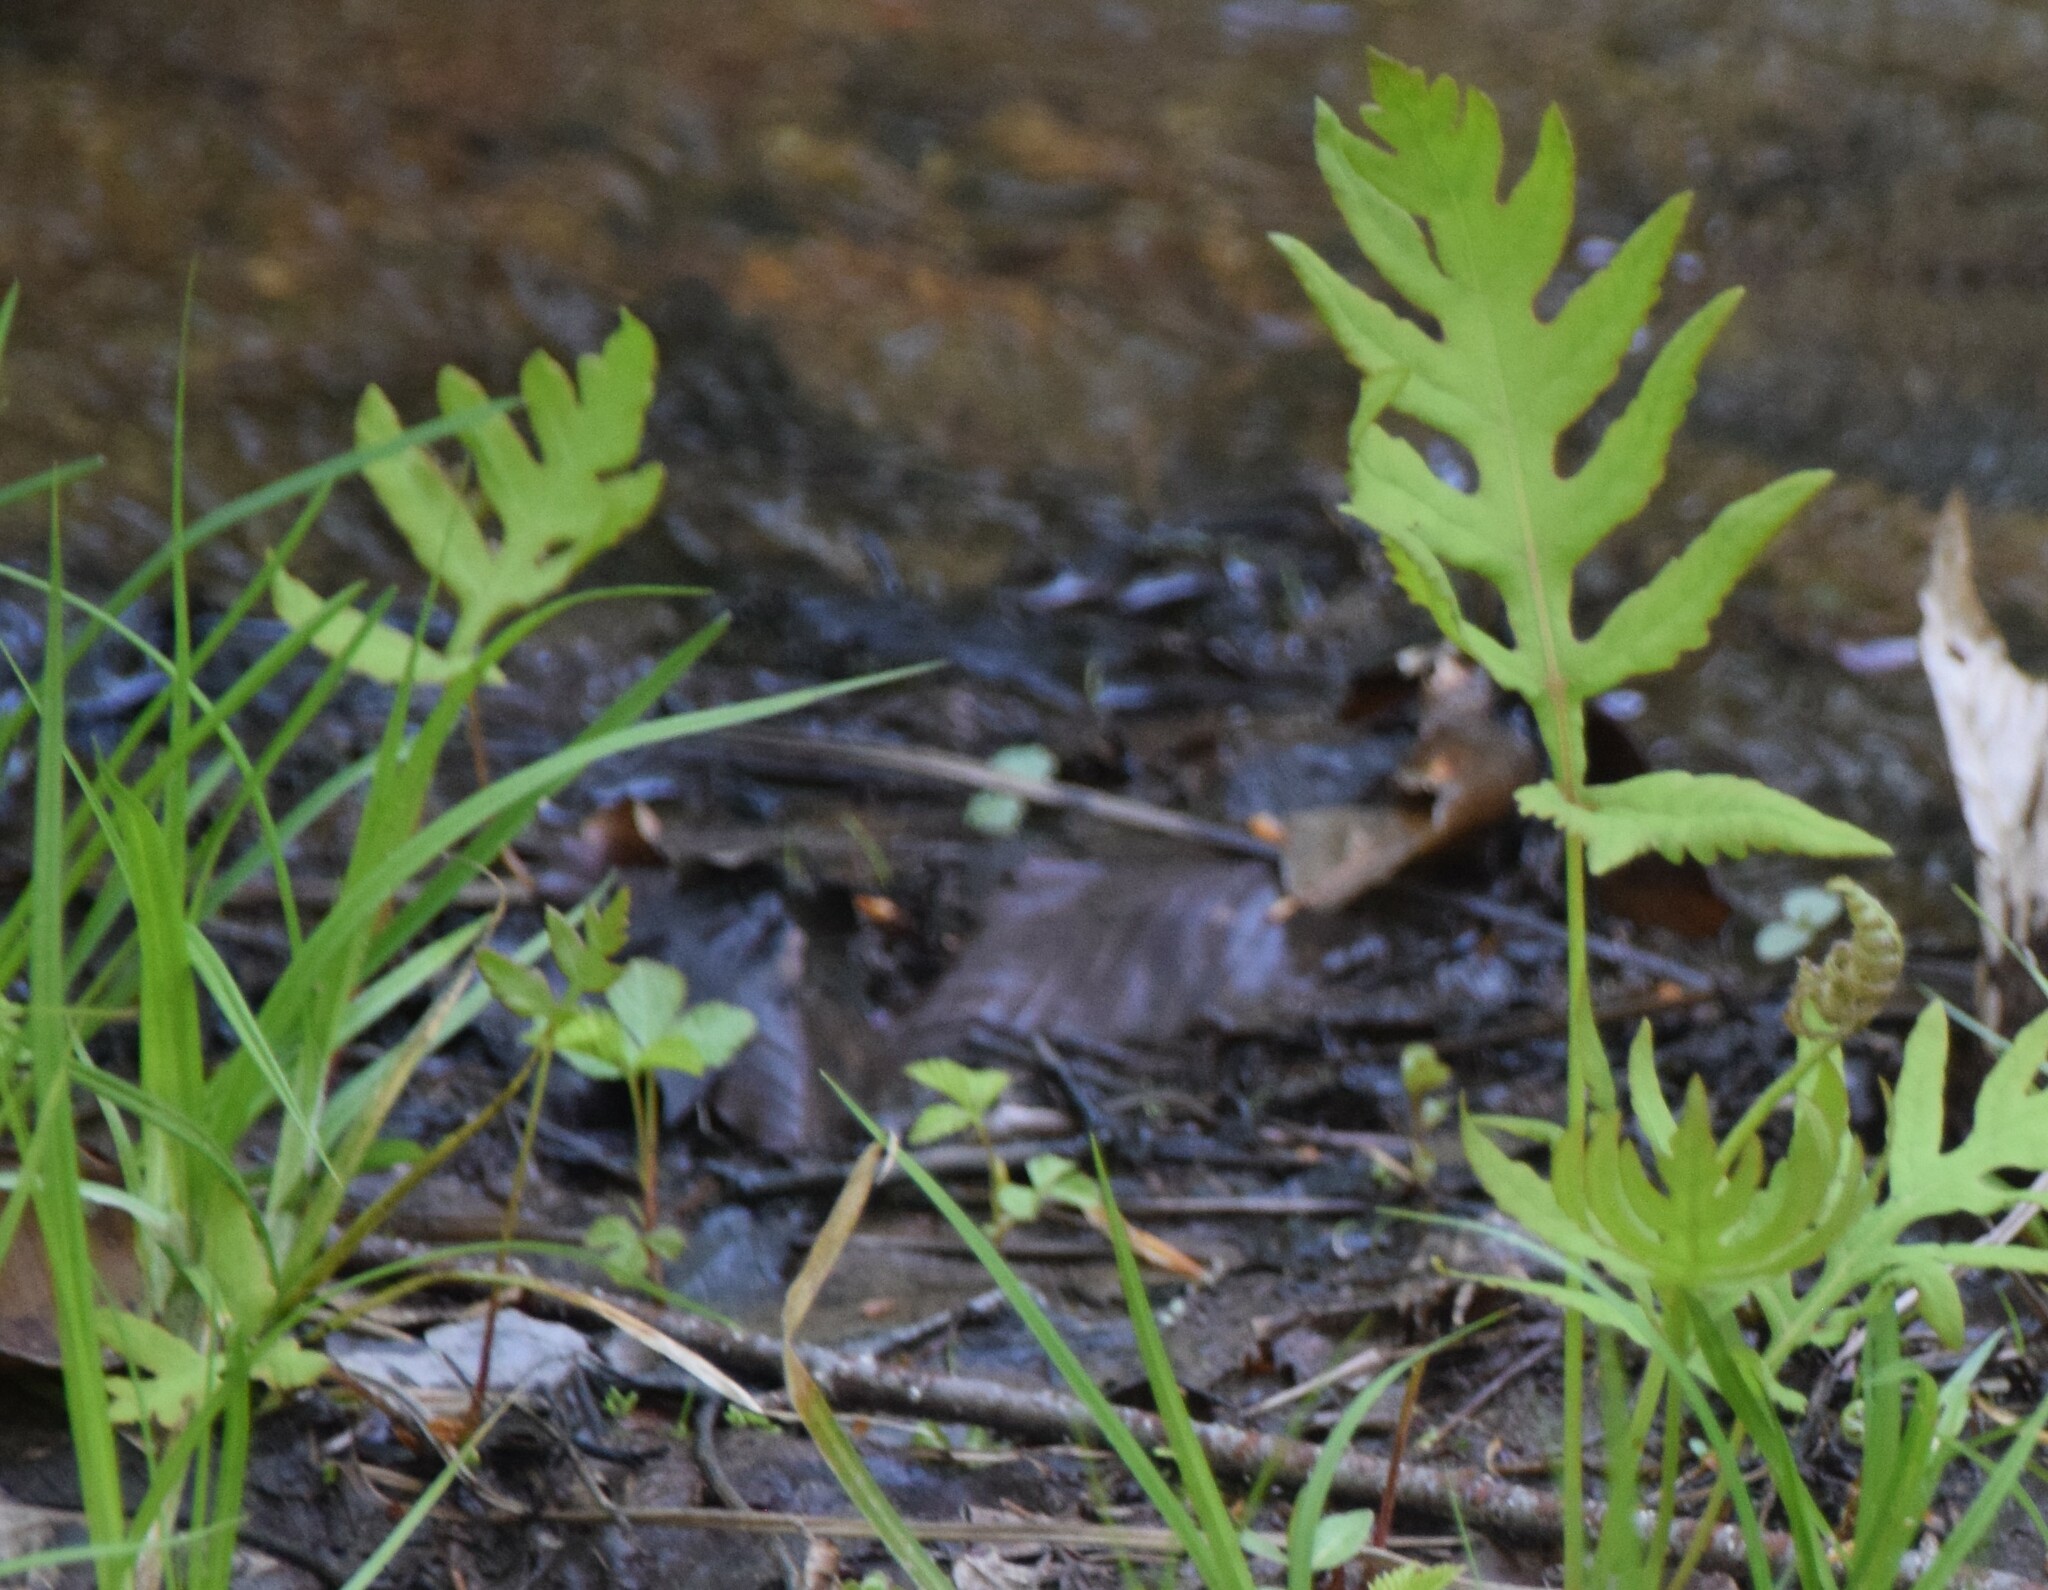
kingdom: Plantae
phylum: Tracheophyta
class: Polypodiopsida
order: Polypodiales
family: Onocleaceae
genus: Onoclea
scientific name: Onoclea sensibilis
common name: Sensitive fern
